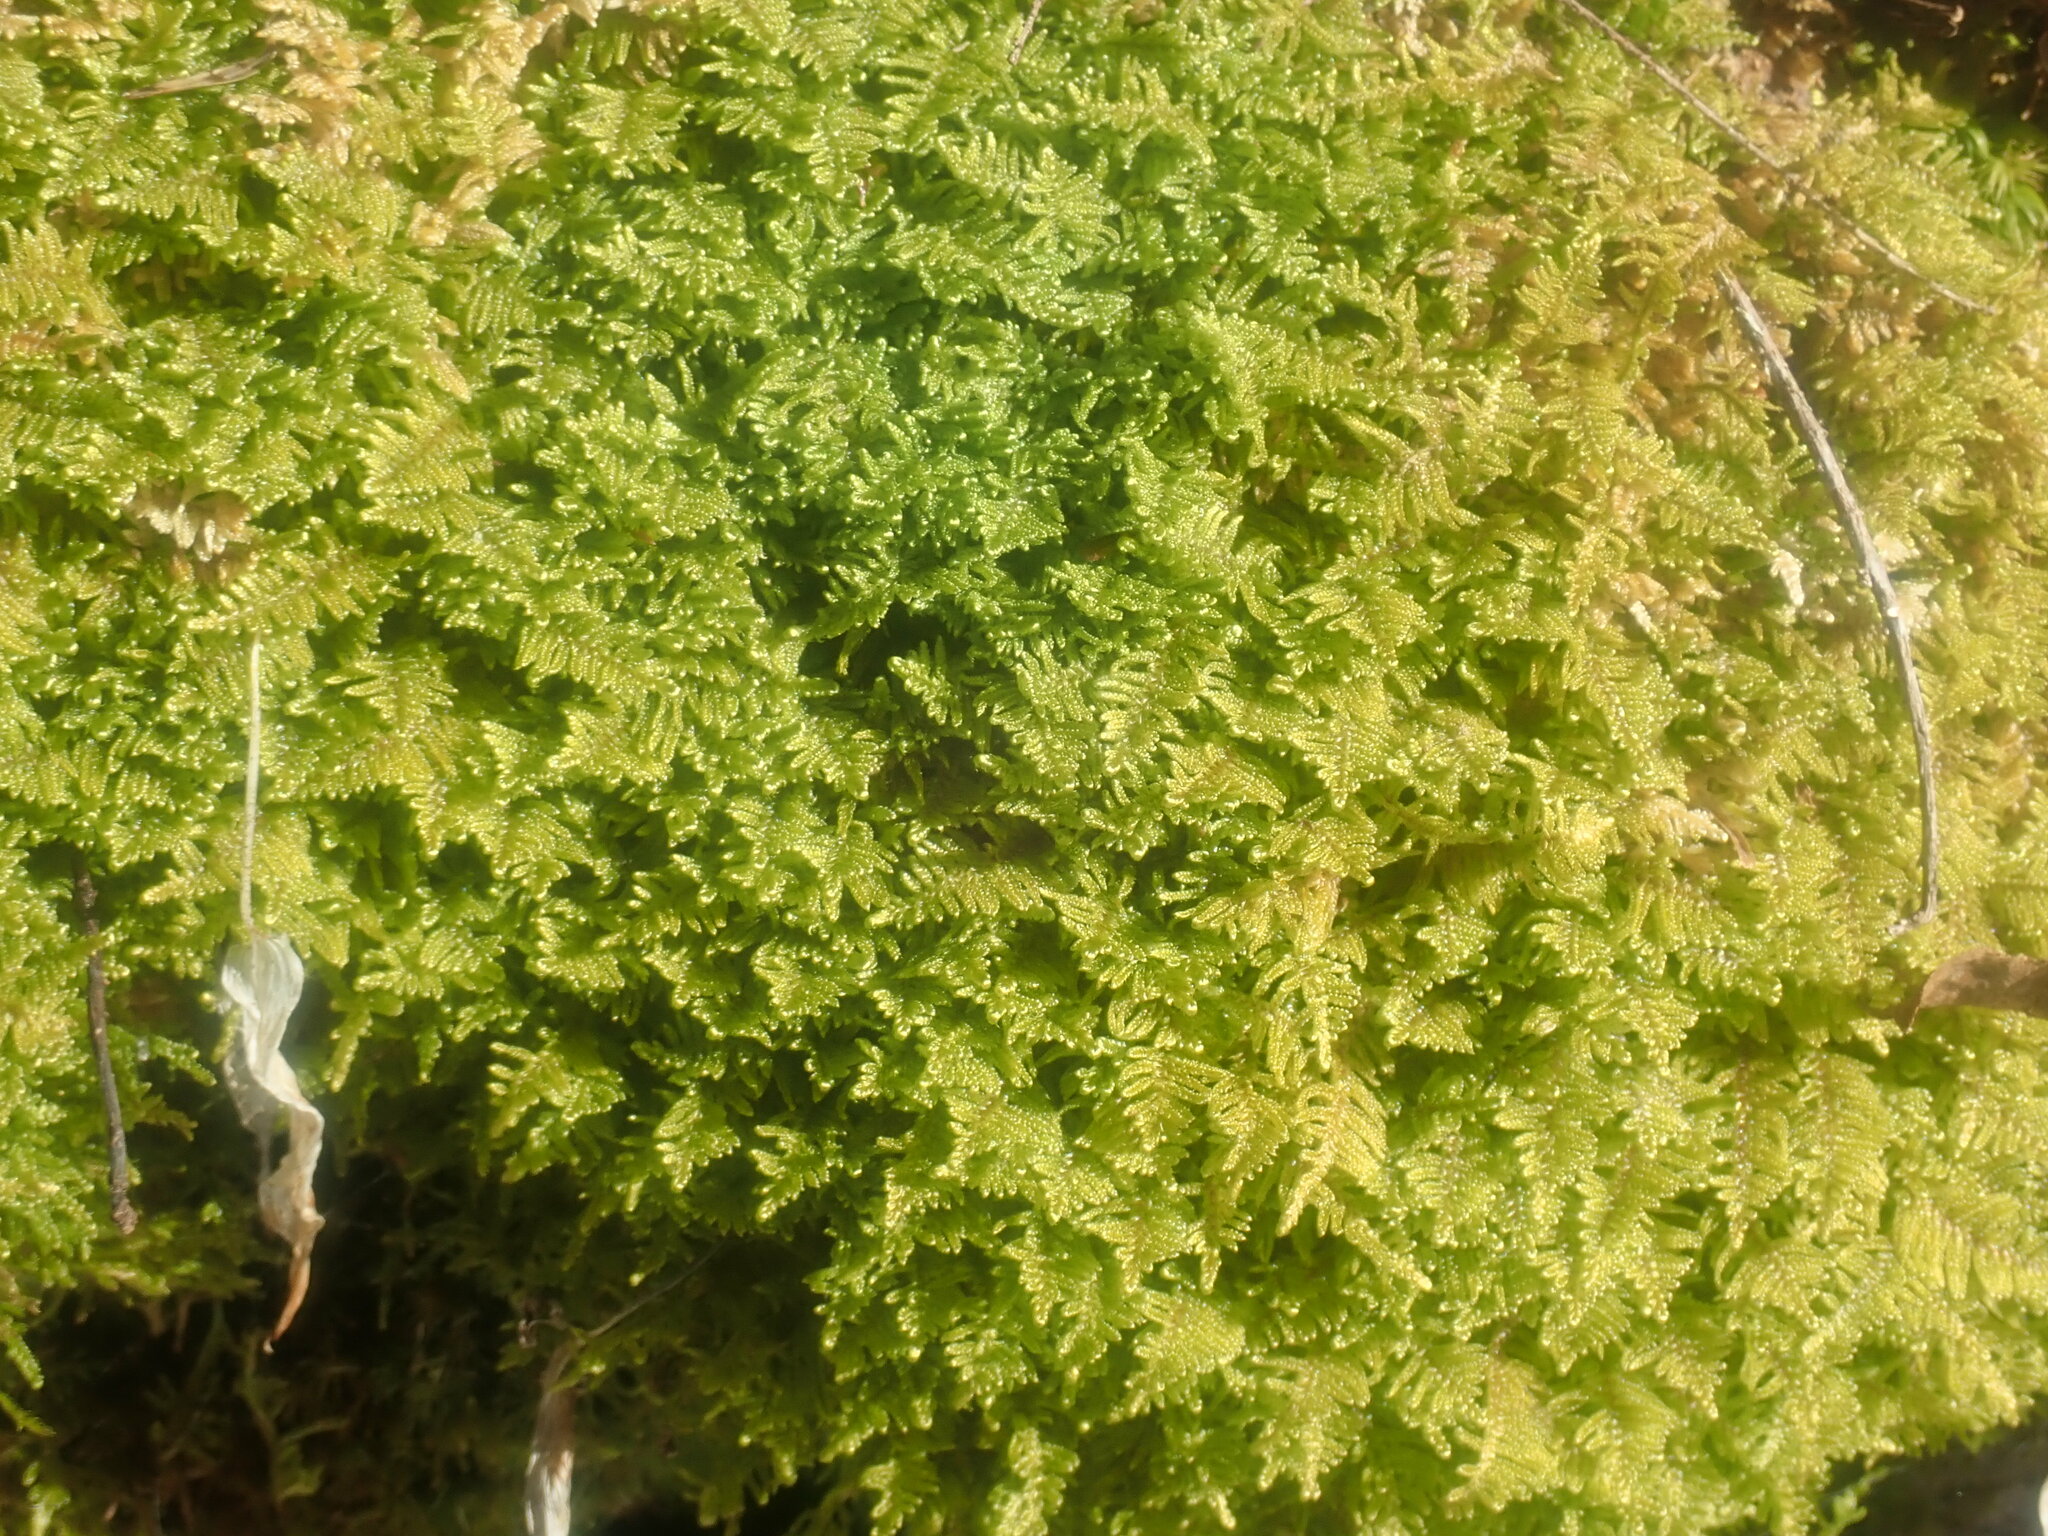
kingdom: Plantae
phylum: Bryophyta
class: Bryopsida
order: Hypnales
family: Callicladiaceae
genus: Callicladium
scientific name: Callicladium imponens
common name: Brocade moss
